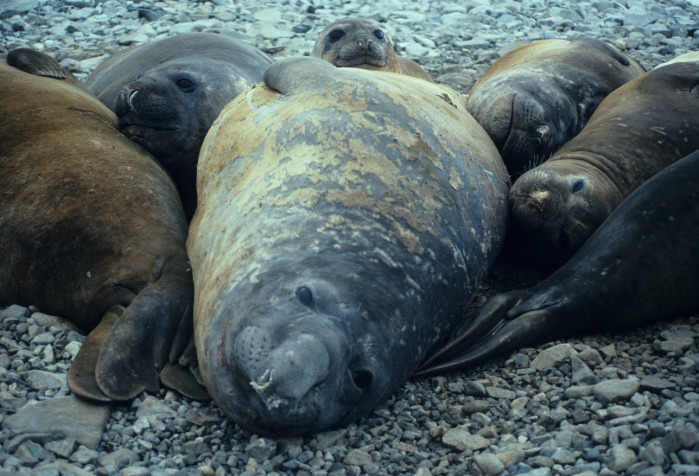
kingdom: Animalia
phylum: Chordata
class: Mammalia
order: Carnivora
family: Phocidae
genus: Mirounga
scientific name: Mirounga leonina
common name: Southern elephant seal
